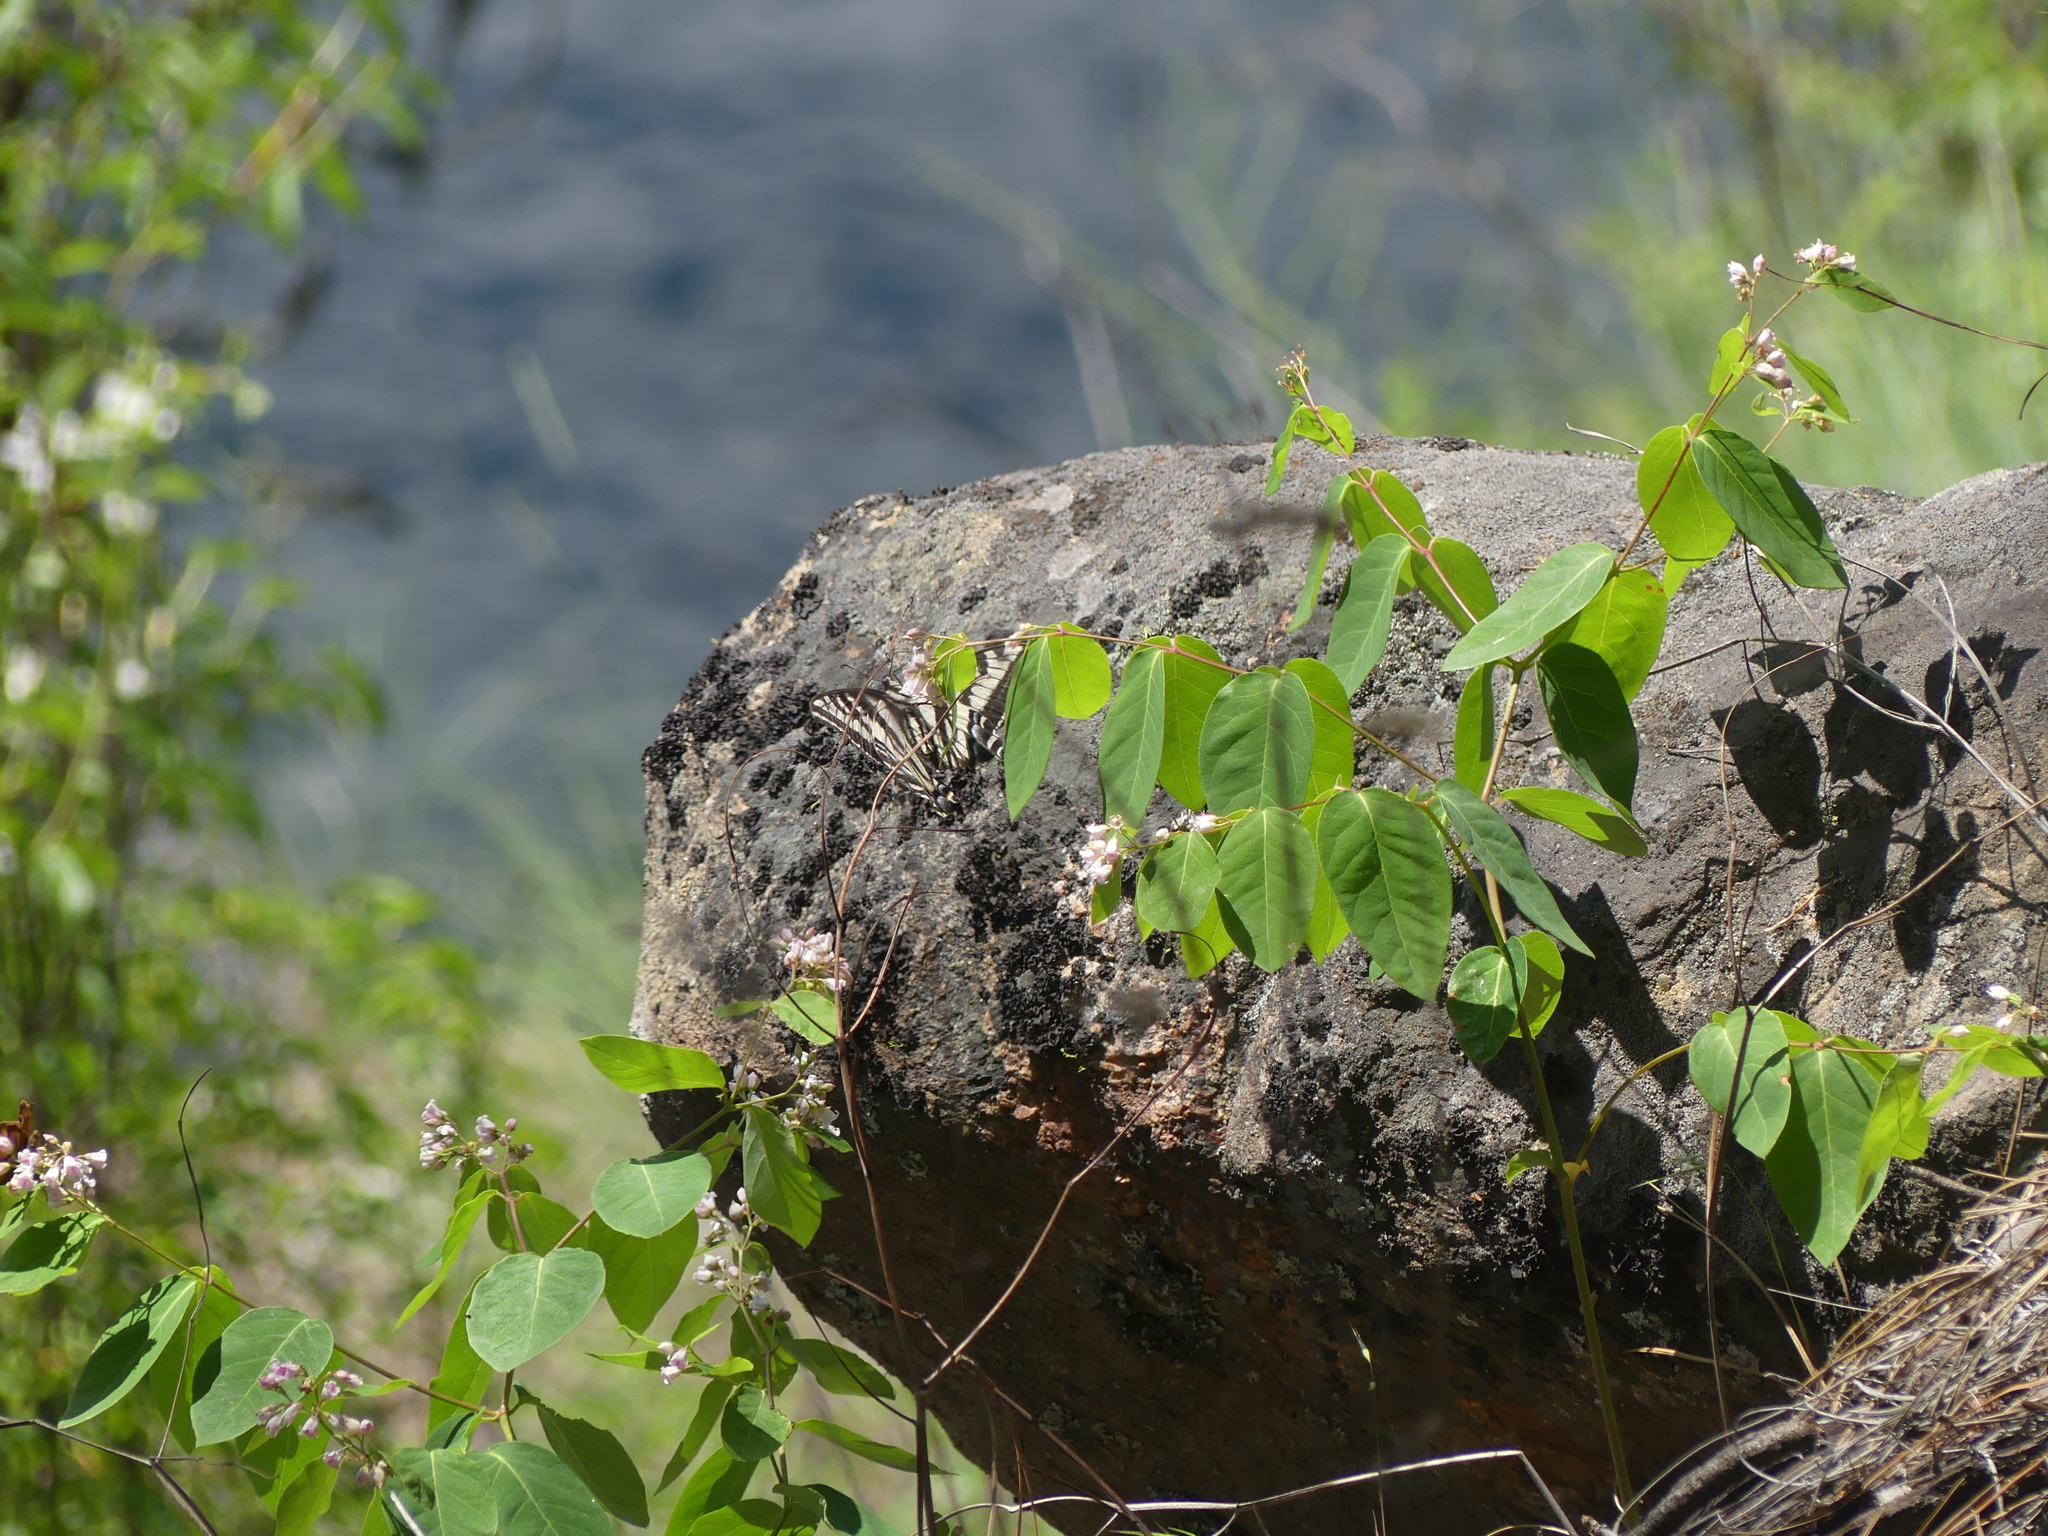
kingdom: Animalia
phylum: Arthropoda
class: Insecta
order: Lepidoptera
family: Papilionidae
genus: Papilio
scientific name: Papilio eurymedon
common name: Pale tiger swallowtail
